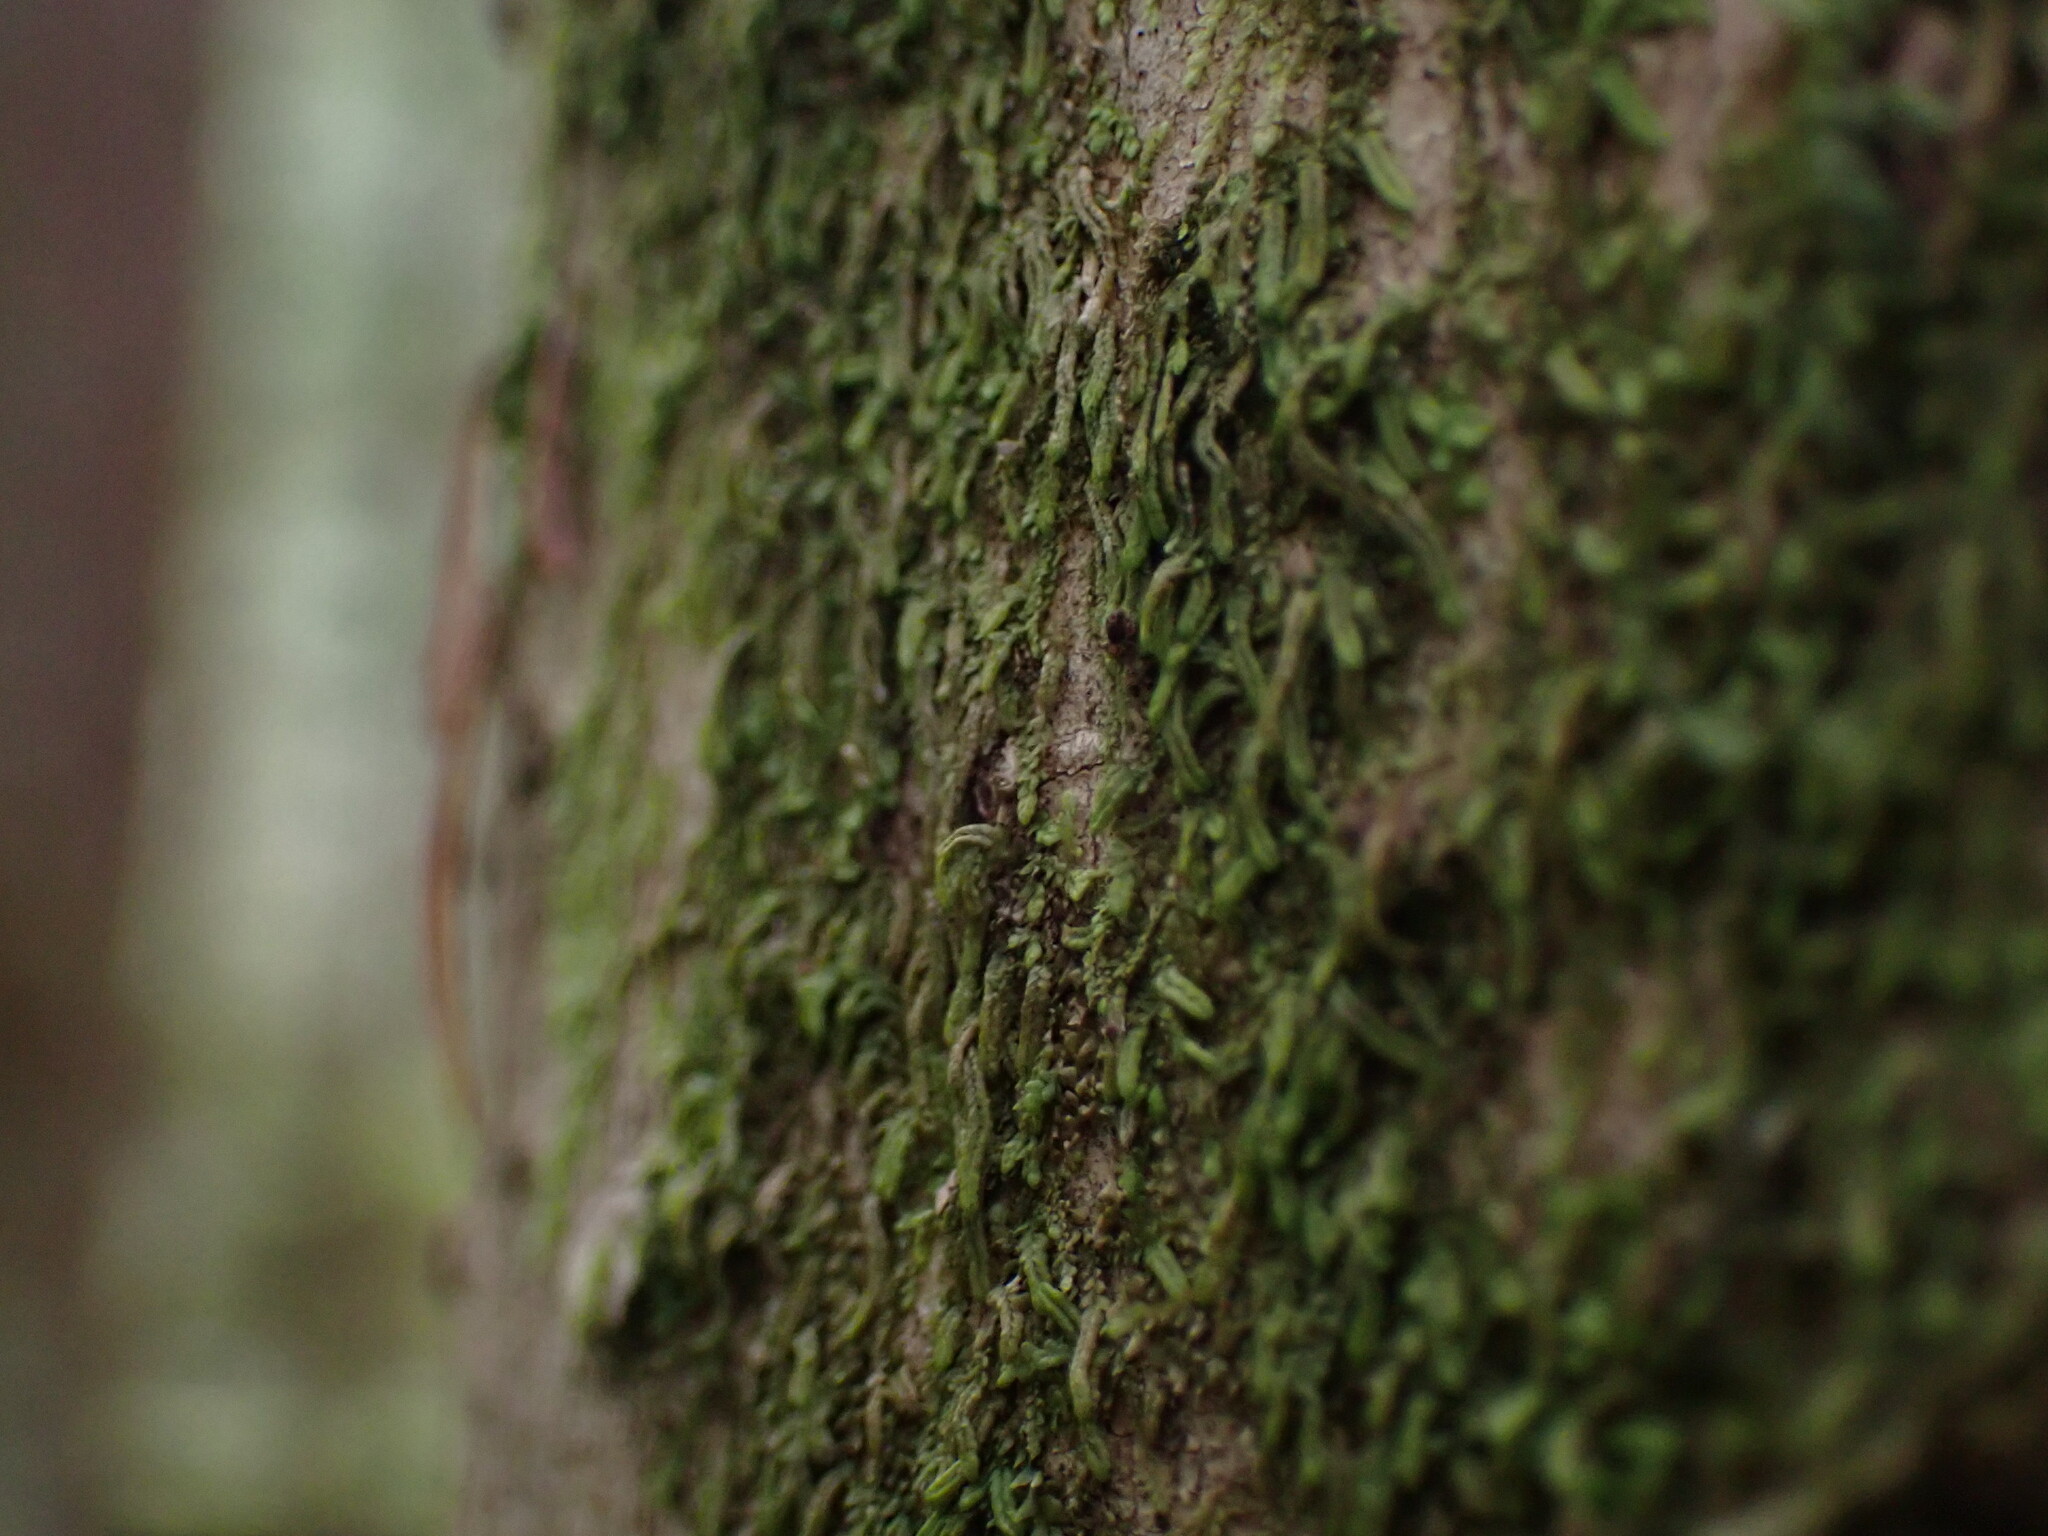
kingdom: Plantae
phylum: Marchantiophyta
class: Jungermanniopsida
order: Porellales
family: Radulaceae
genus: Radula
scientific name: Radula bolanderi
